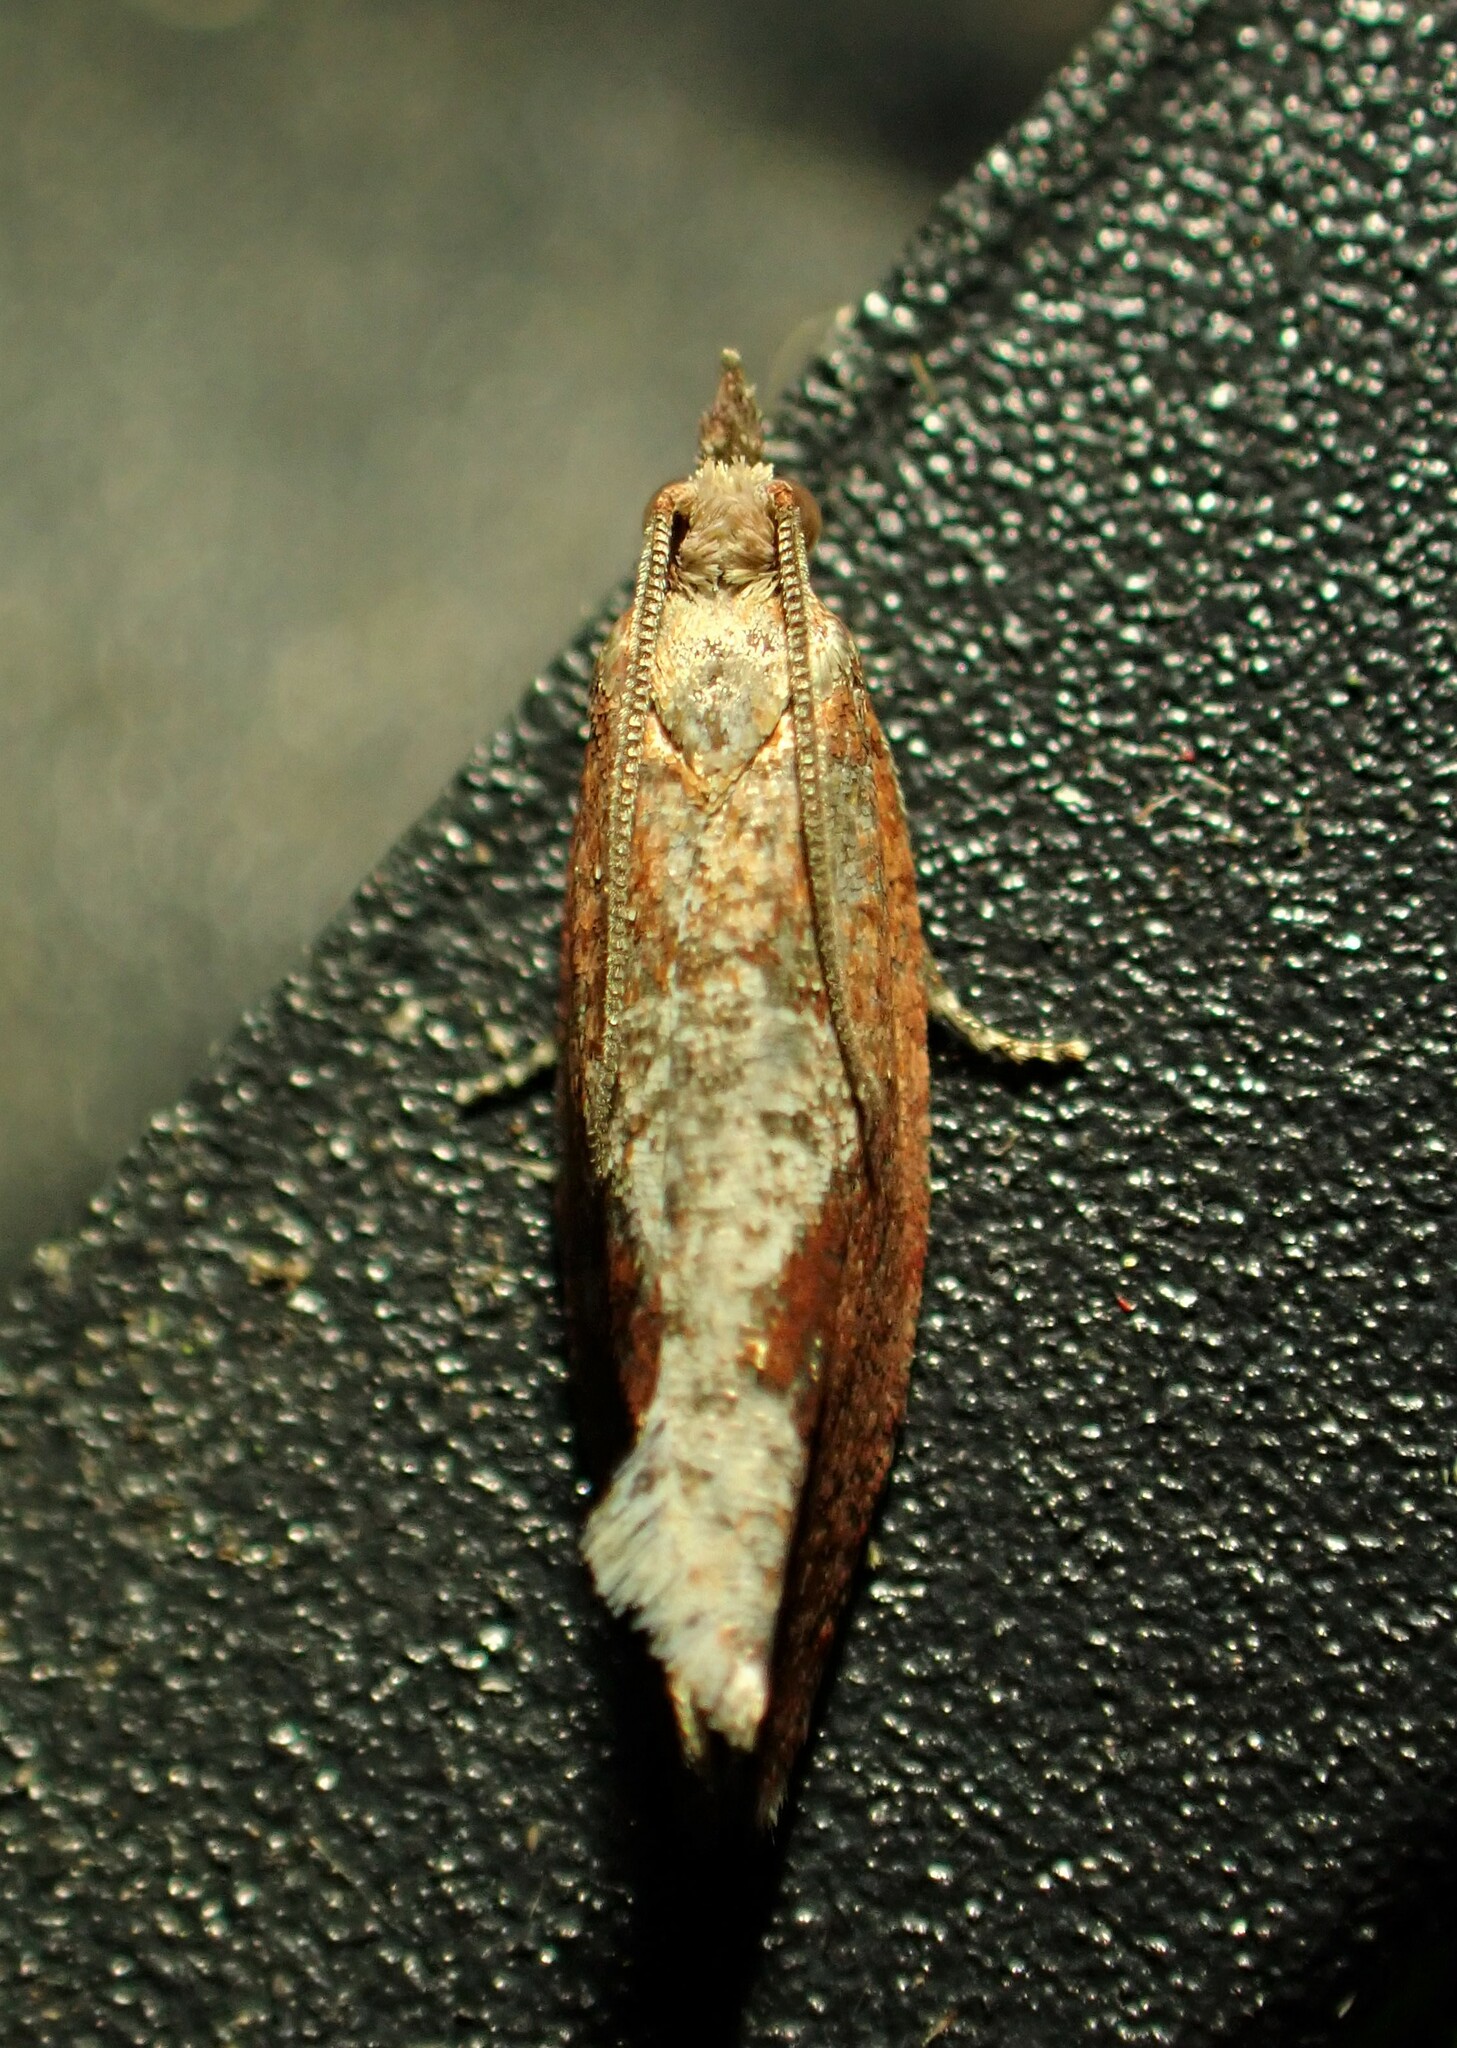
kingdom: Animalia
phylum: Arthropoda
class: Insecta
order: Lepidoptera
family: Tortricidae
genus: Epinotia
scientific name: Epinotia septemberana
